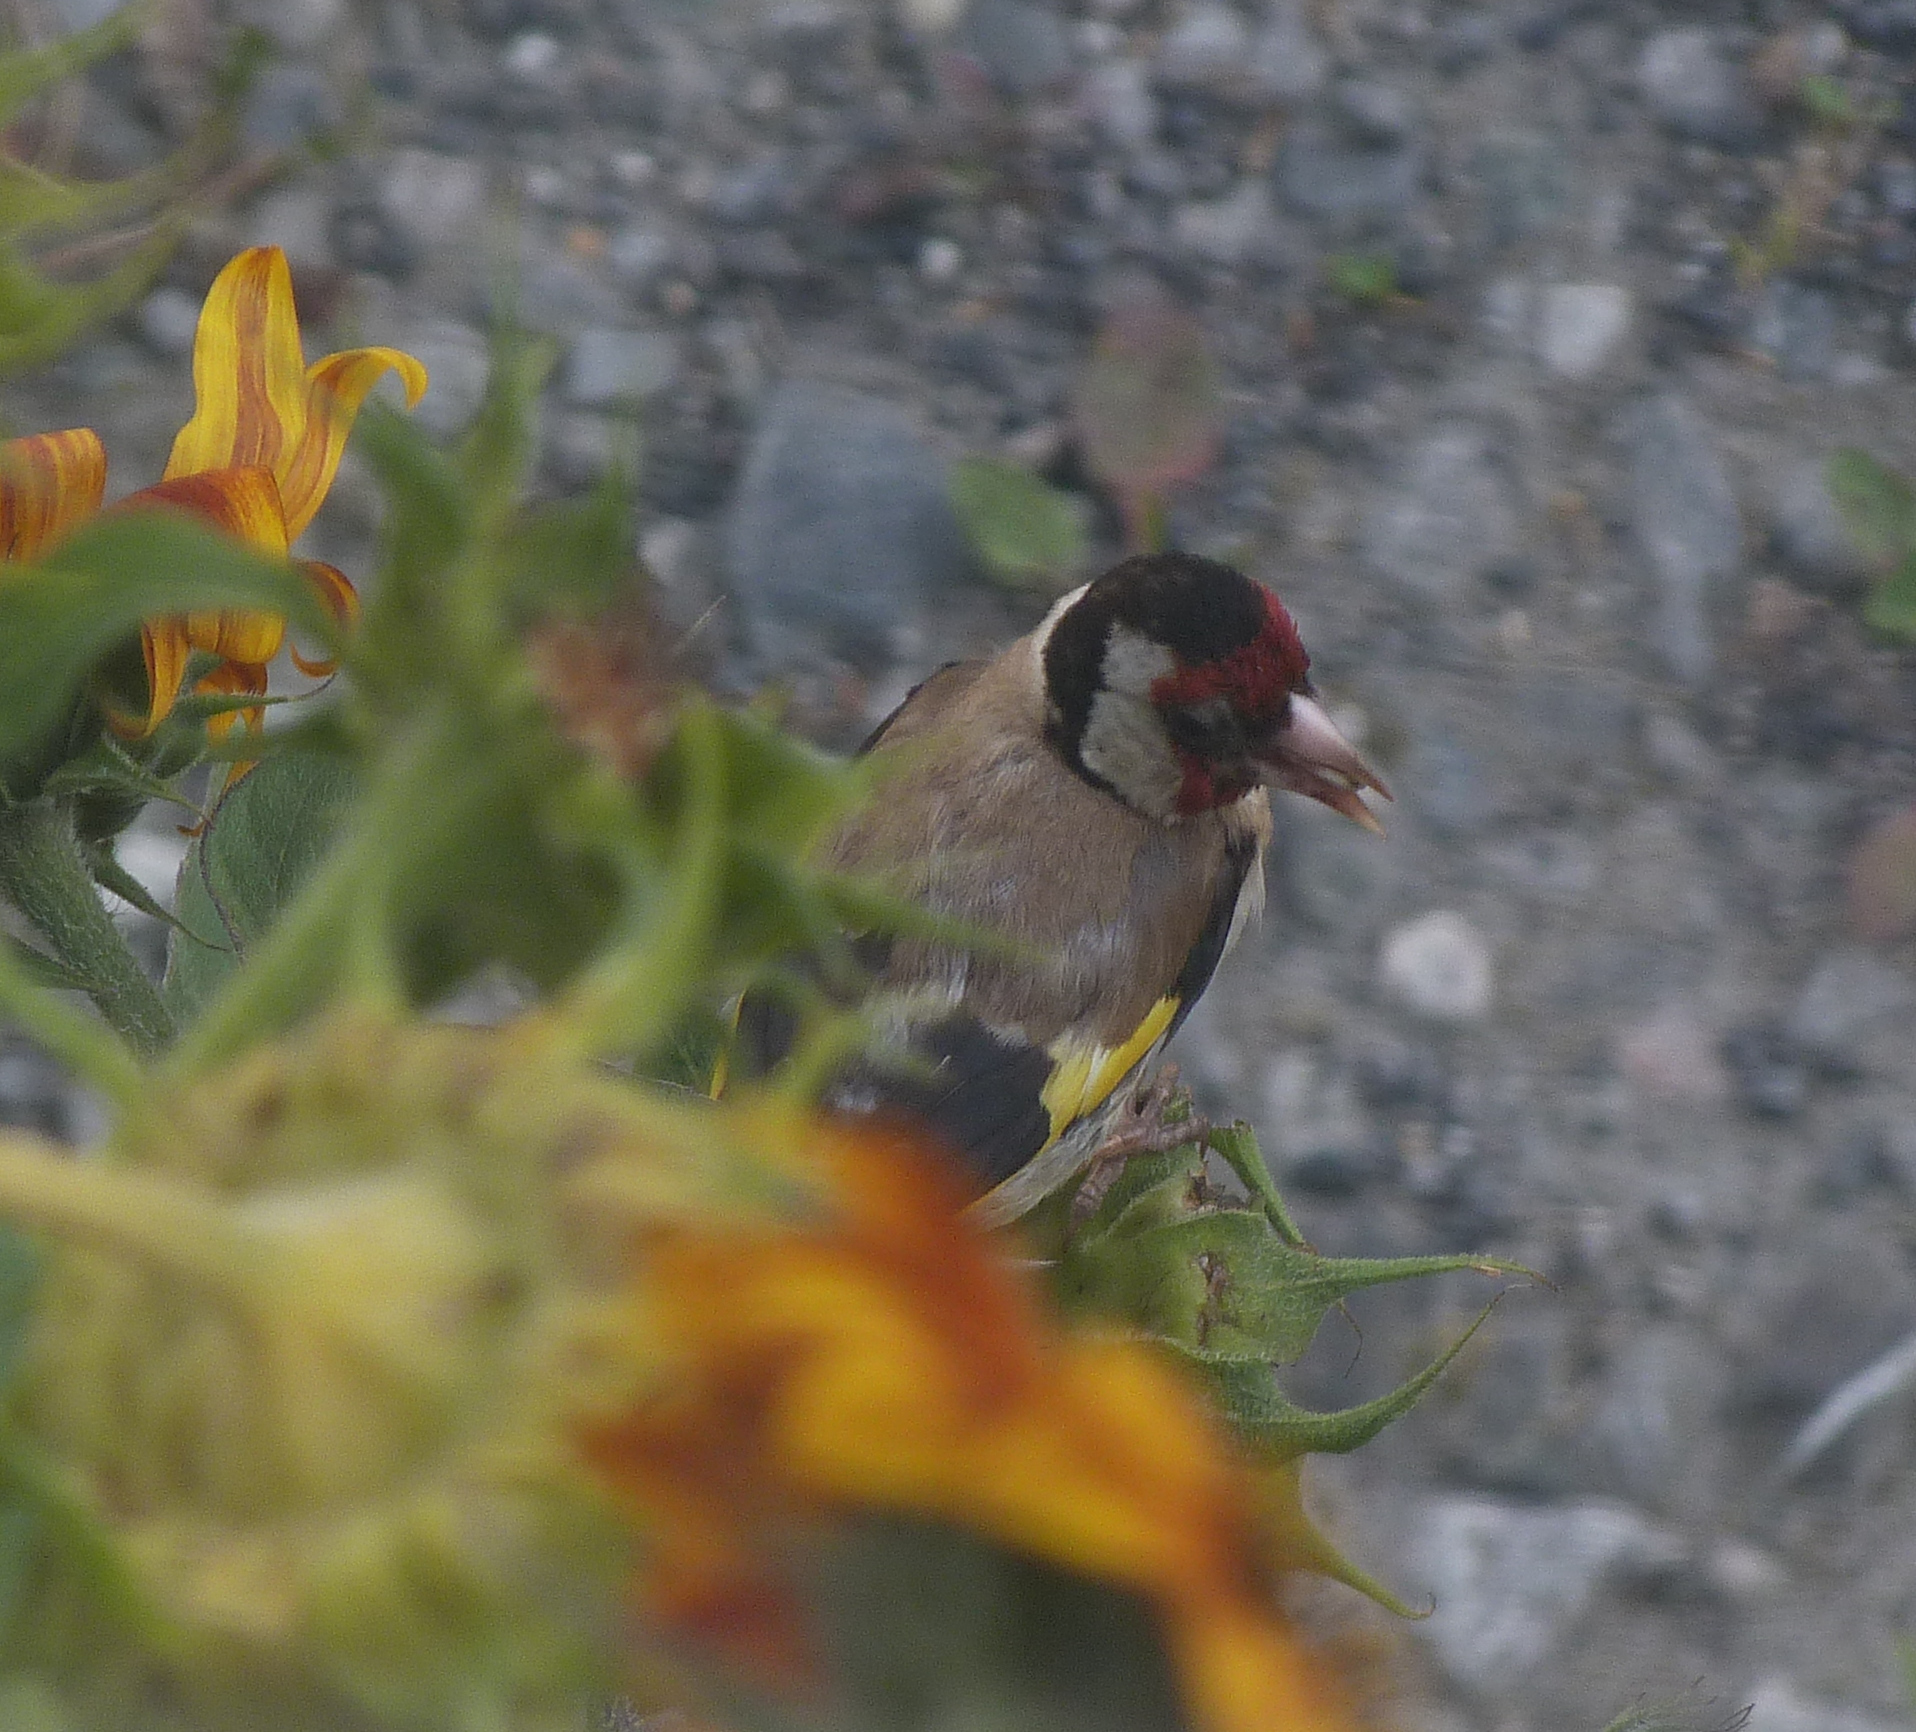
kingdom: Animalia
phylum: Chordata
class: Aves
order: Passeriformes
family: Fringillidae
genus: Carduelis
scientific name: Carduelis carduelis
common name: European goldfinch
